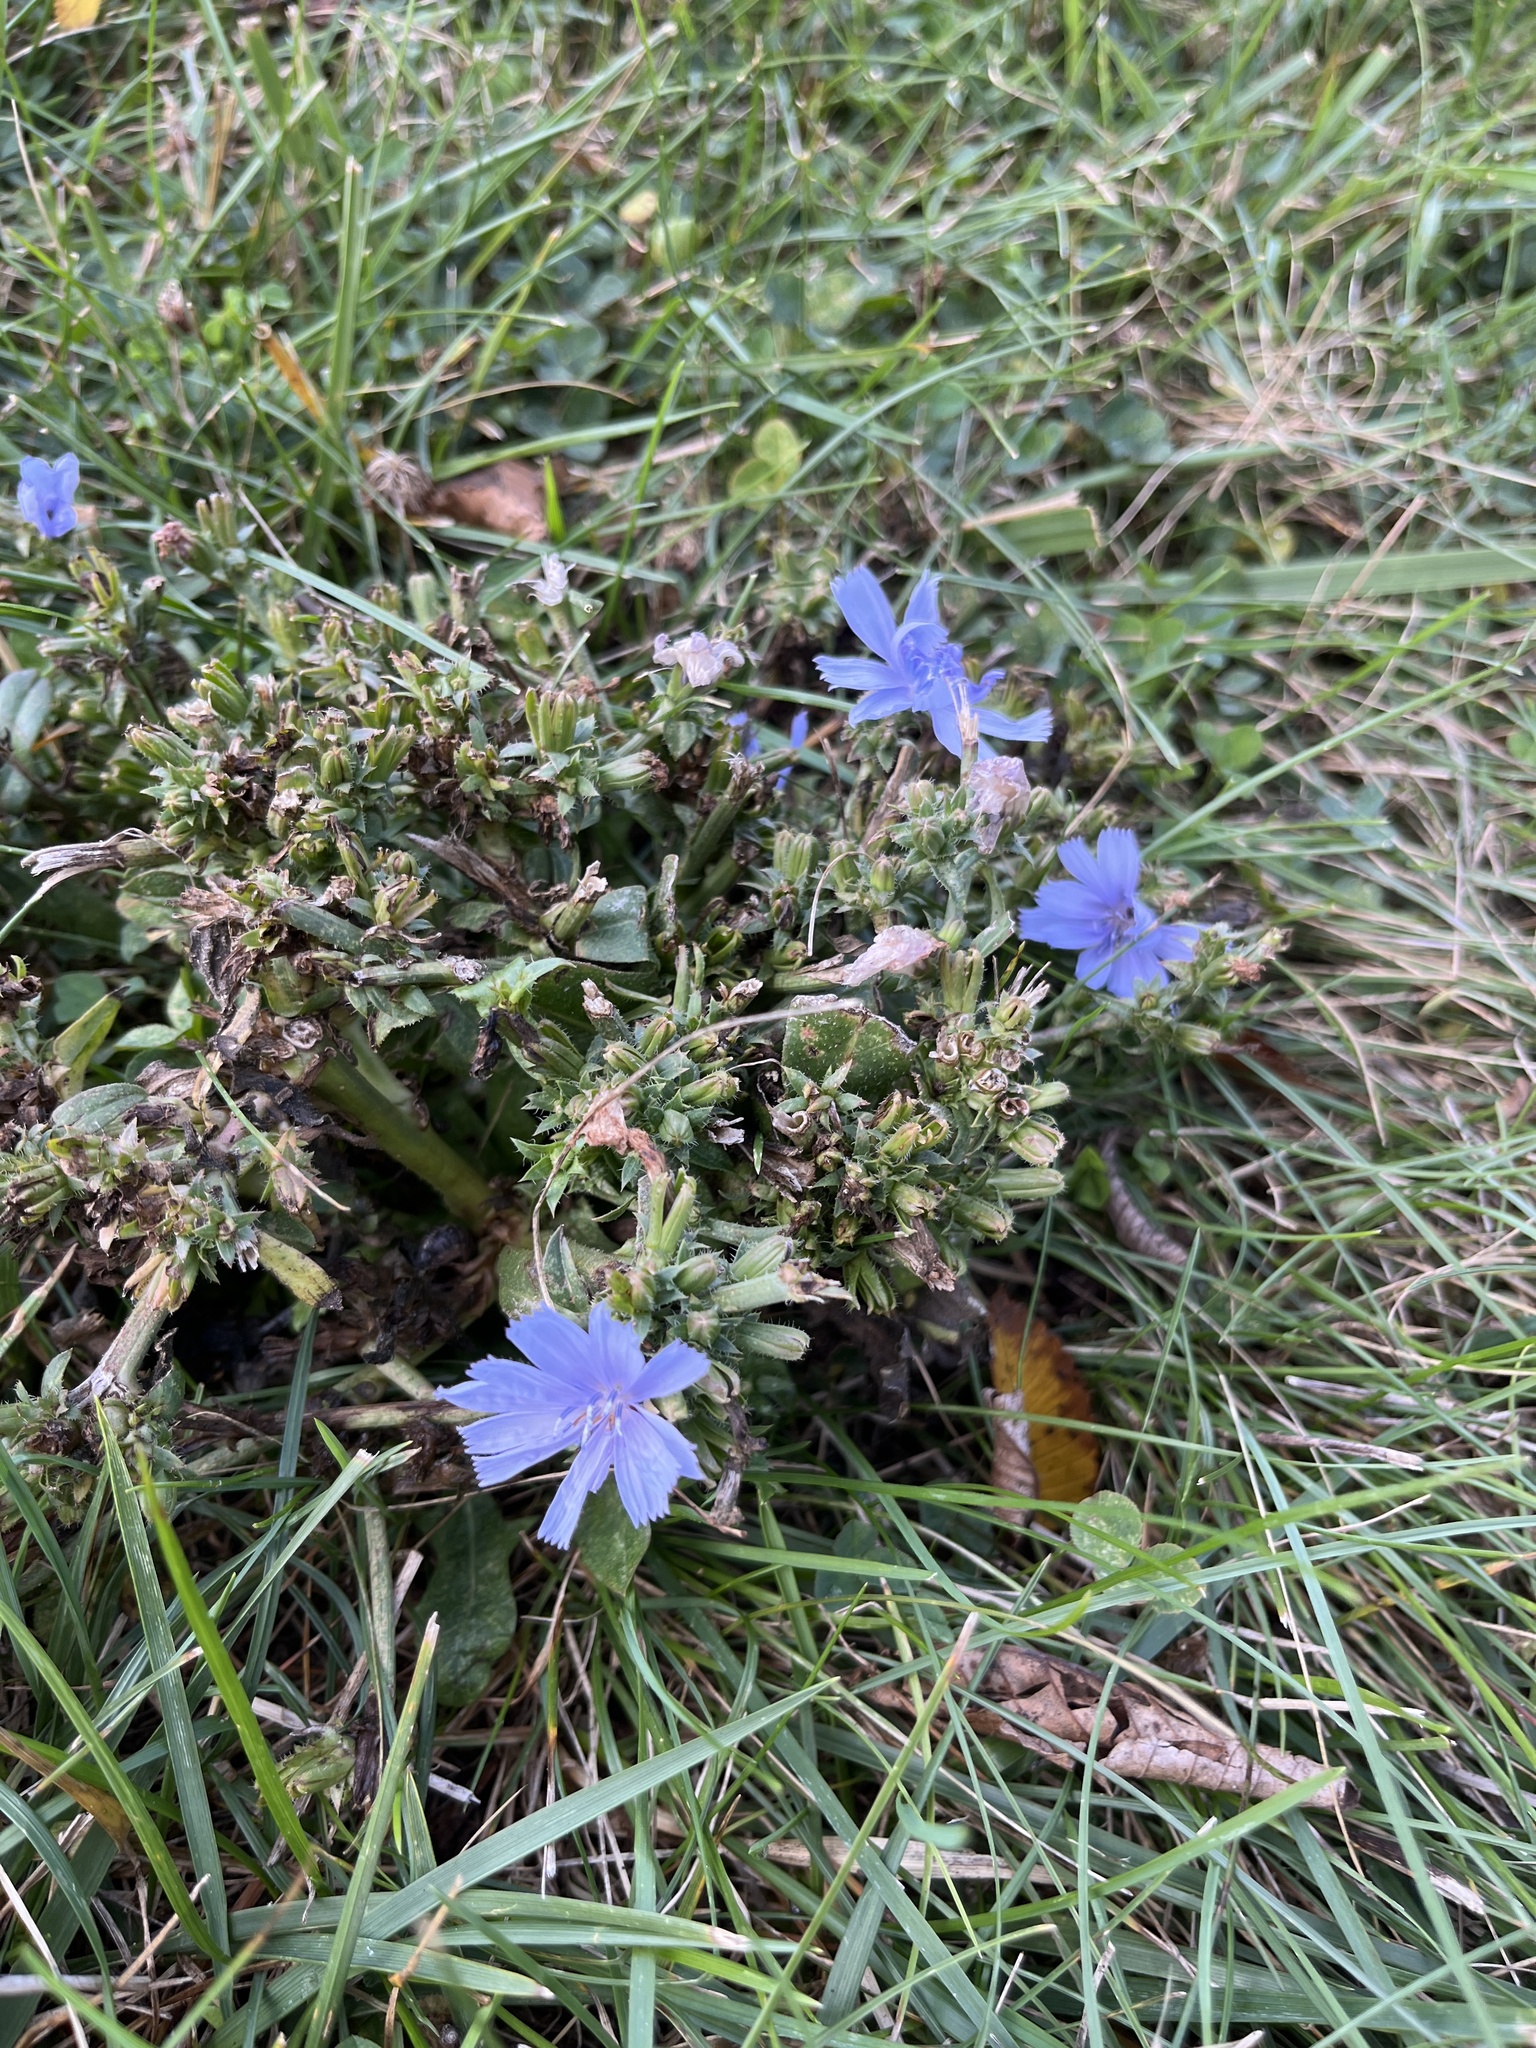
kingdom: Plantae
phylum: Tracheophyta
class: Magnoliopsida
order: Asterales
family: Asteraceae
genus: Cichorium
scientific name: Cichorium intybus
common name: Chicory
